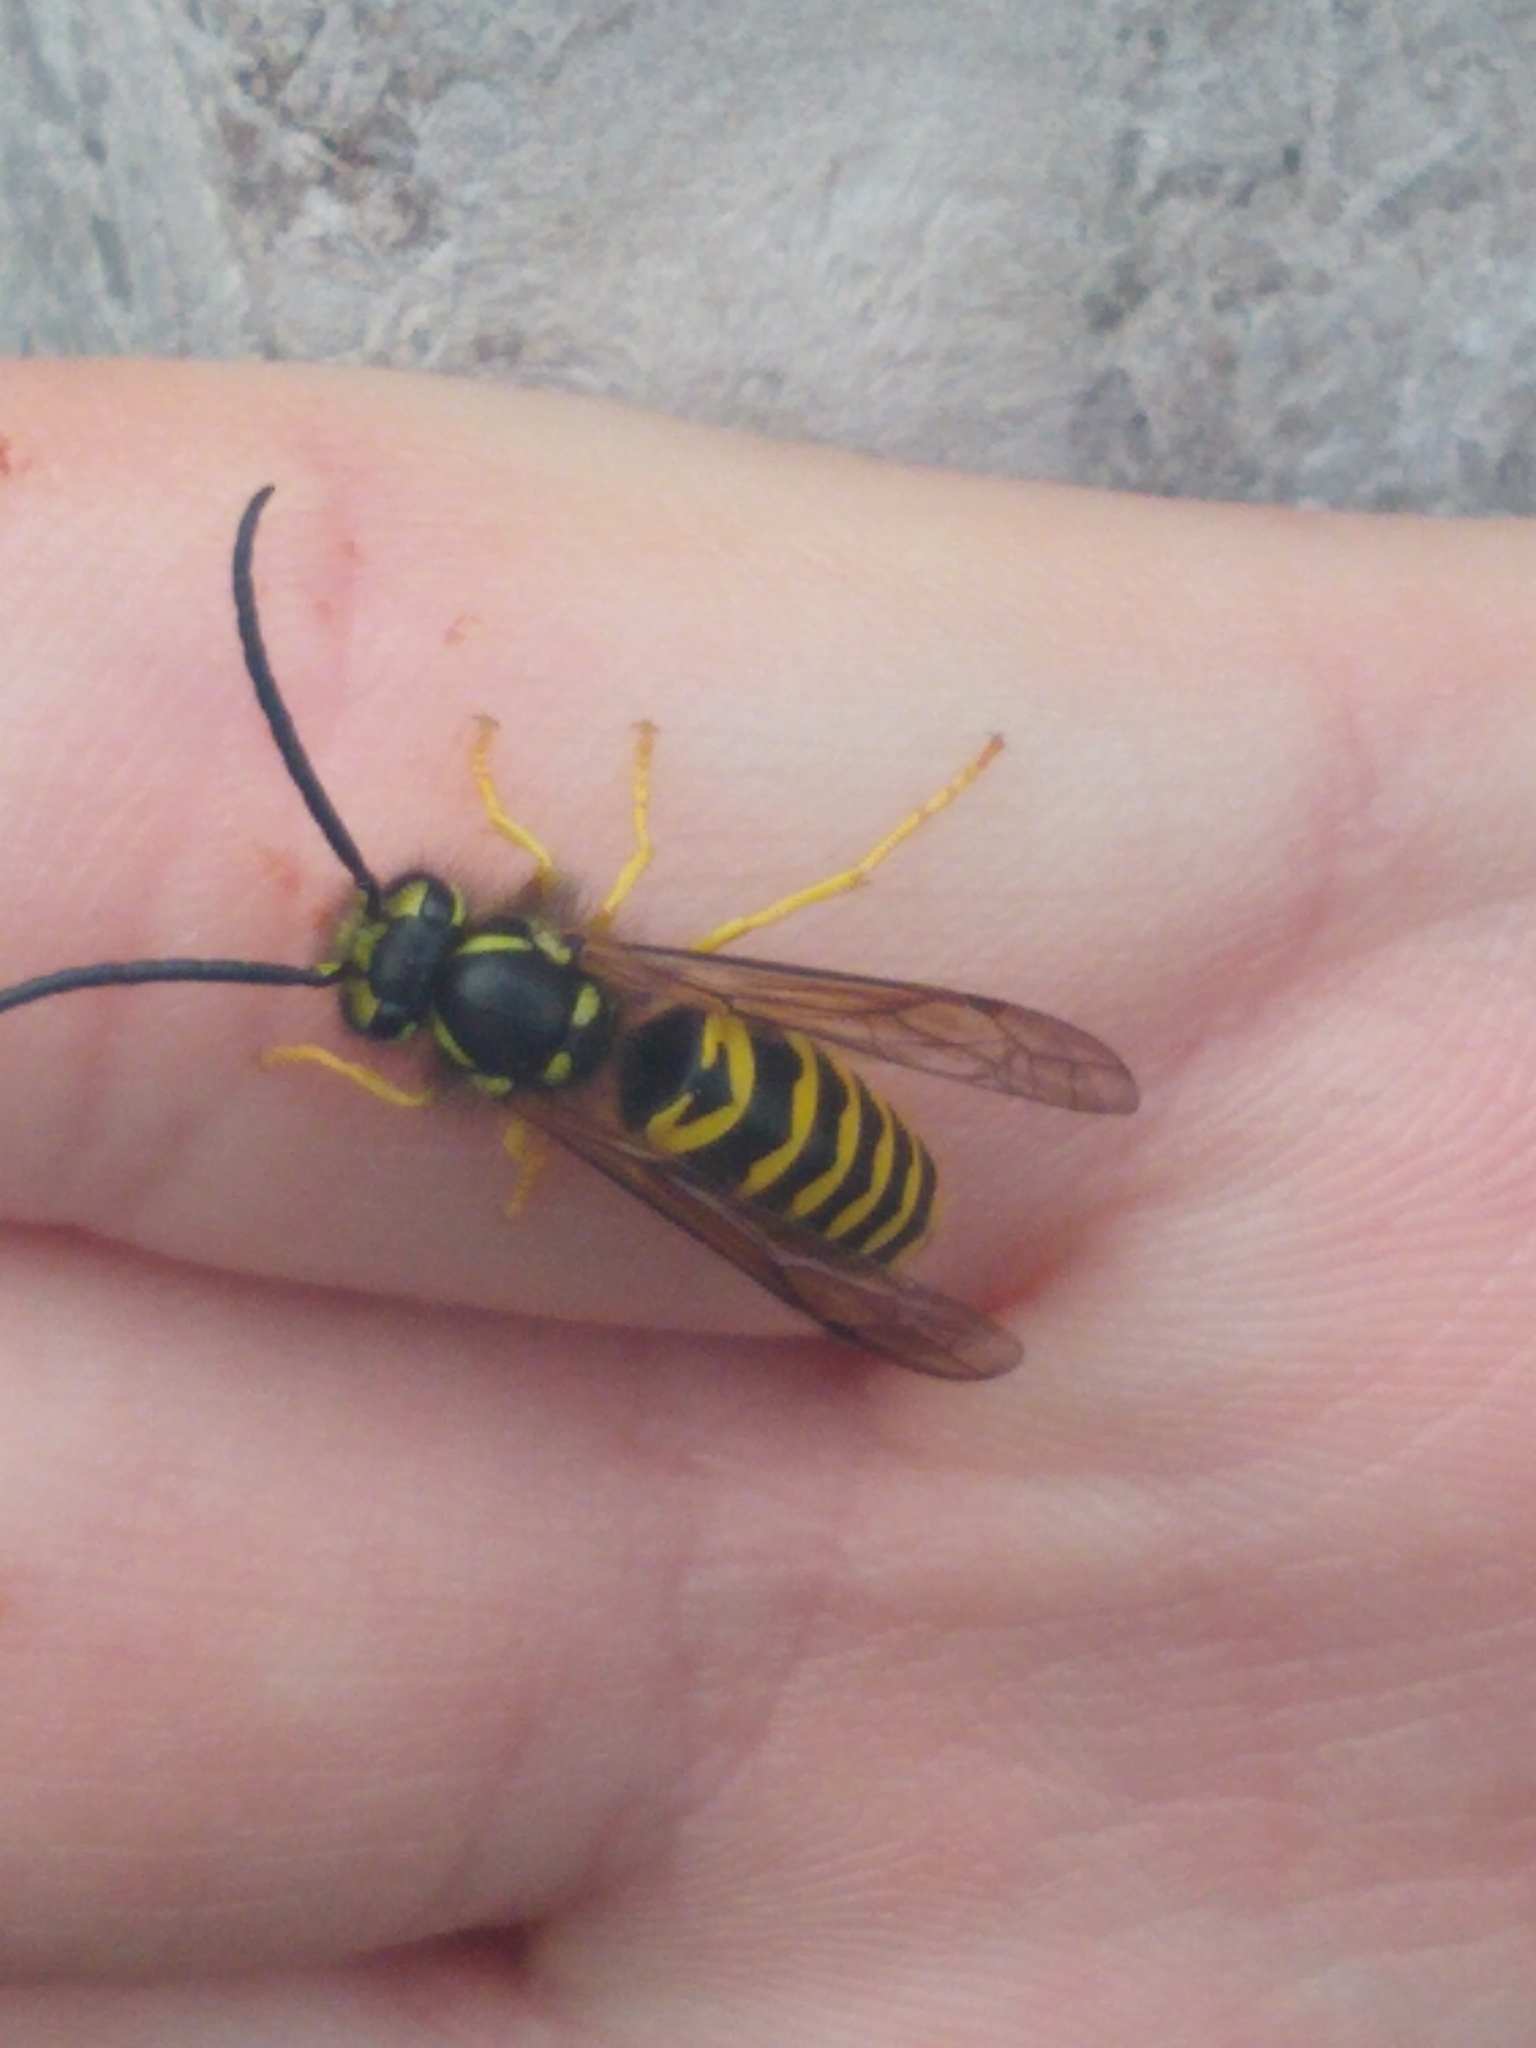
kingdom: Animalia
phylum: Arthropoda
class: Insecta
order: Hymenoptera
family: Vespidae
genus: Vespula
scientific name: Vespula maculifrons
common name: Eastern yellowjacket
